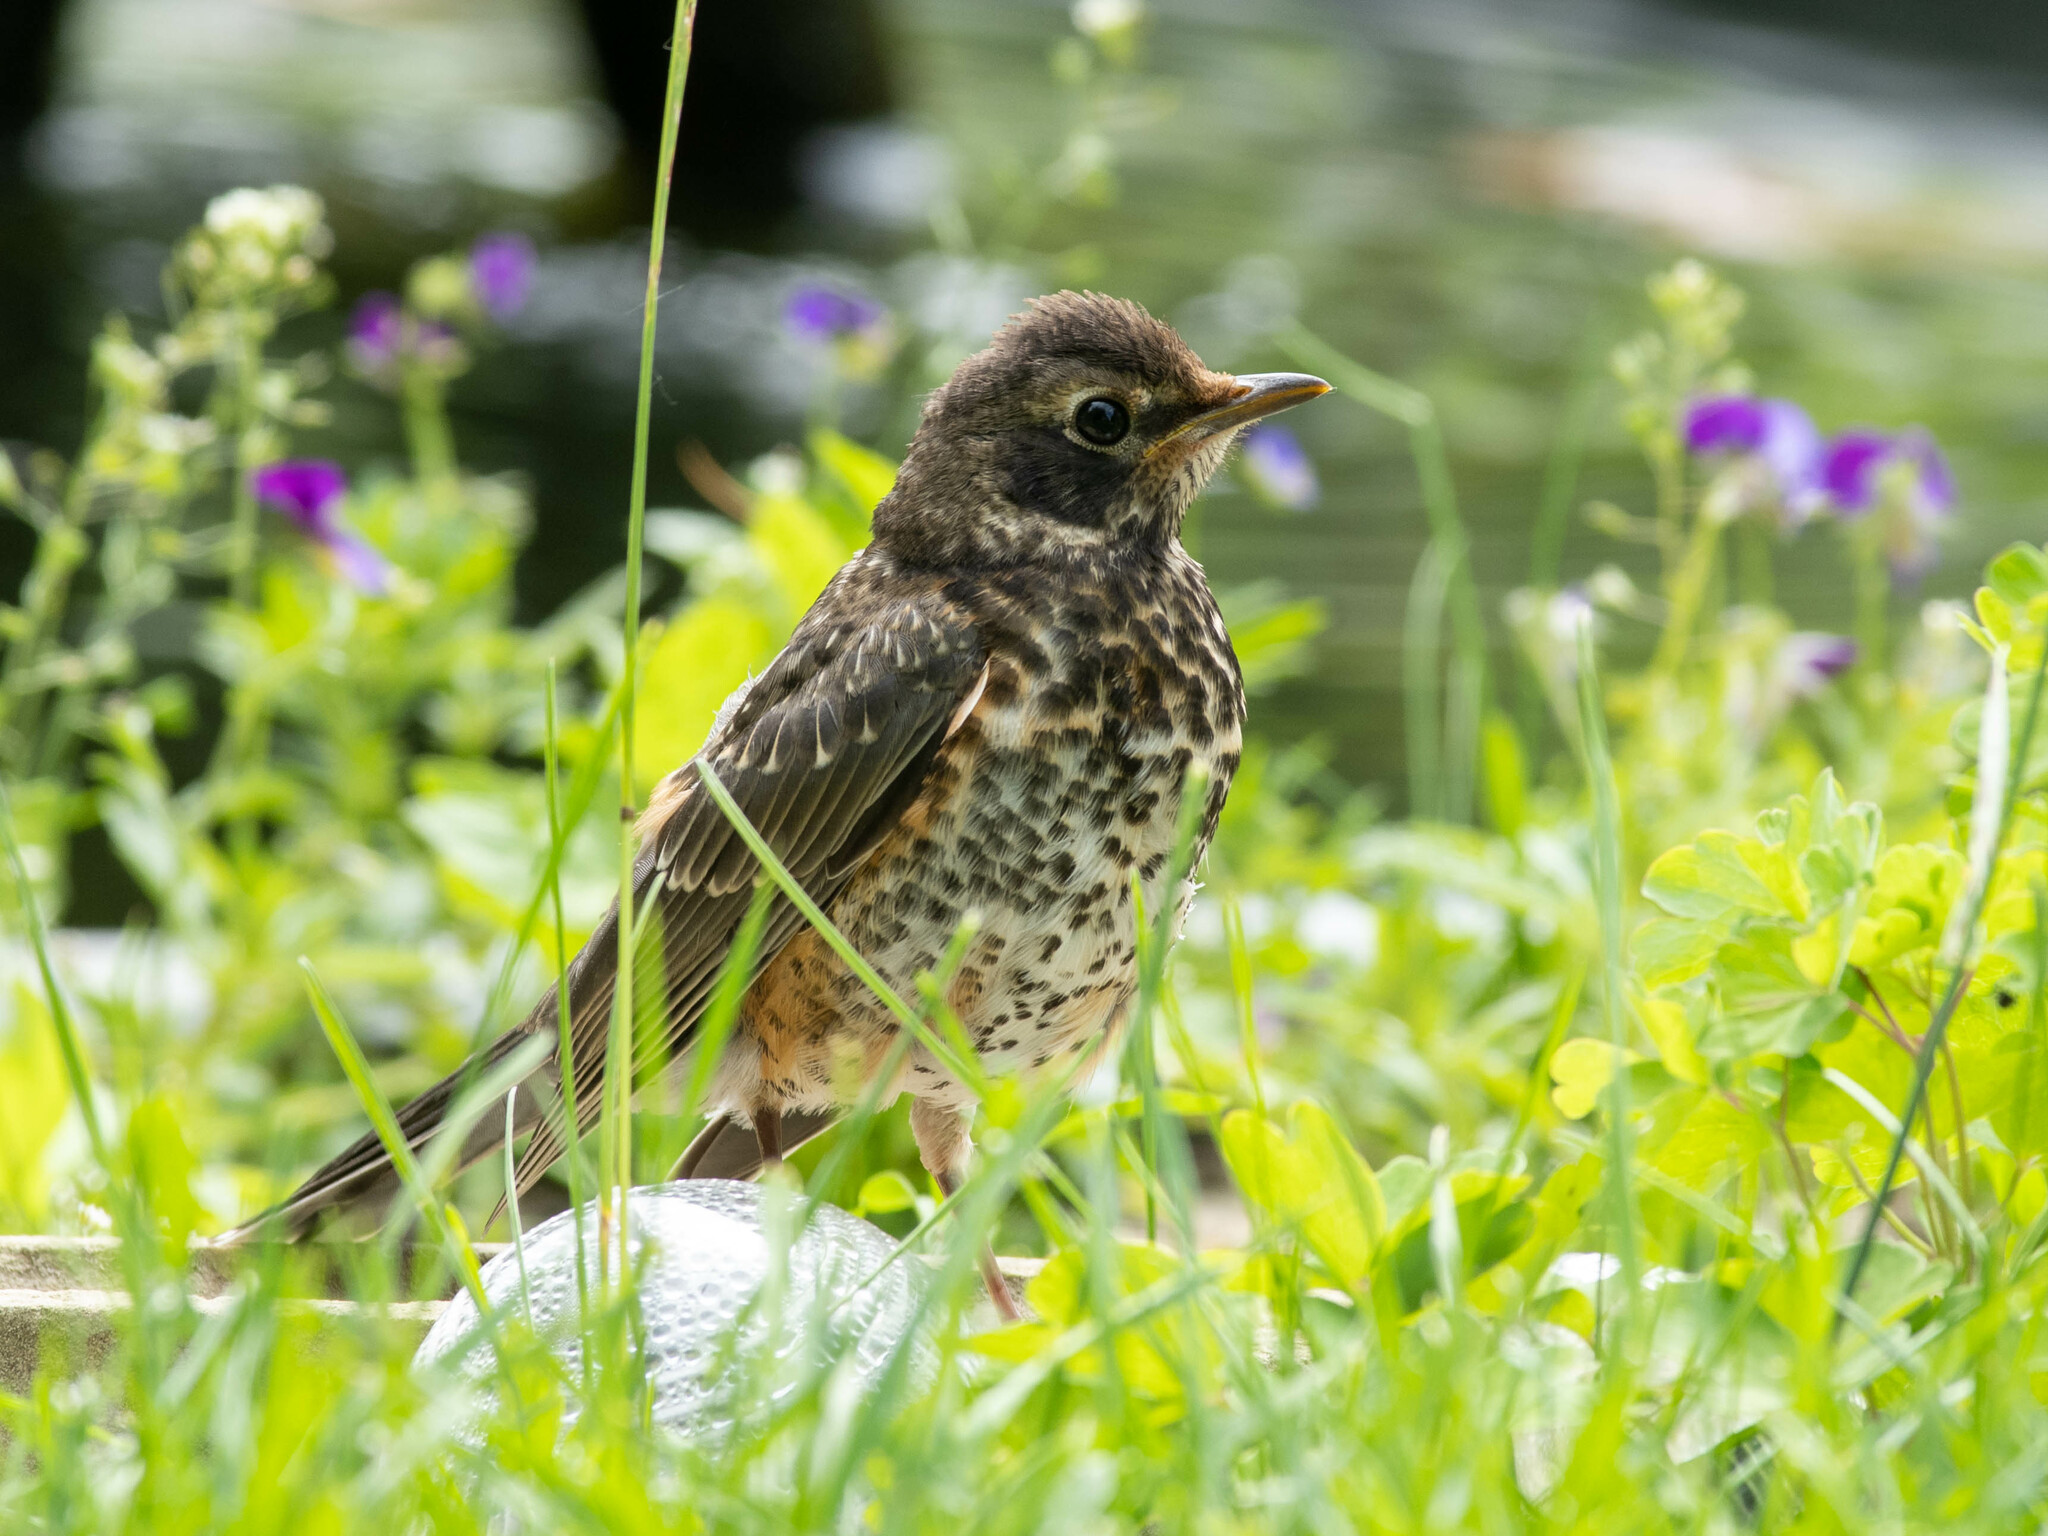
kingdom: Animalia
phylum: Chordata
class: Aves
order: Passeriformes
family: Turdidae
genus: Turdus
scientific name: Turdus migratorius
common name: American robin
